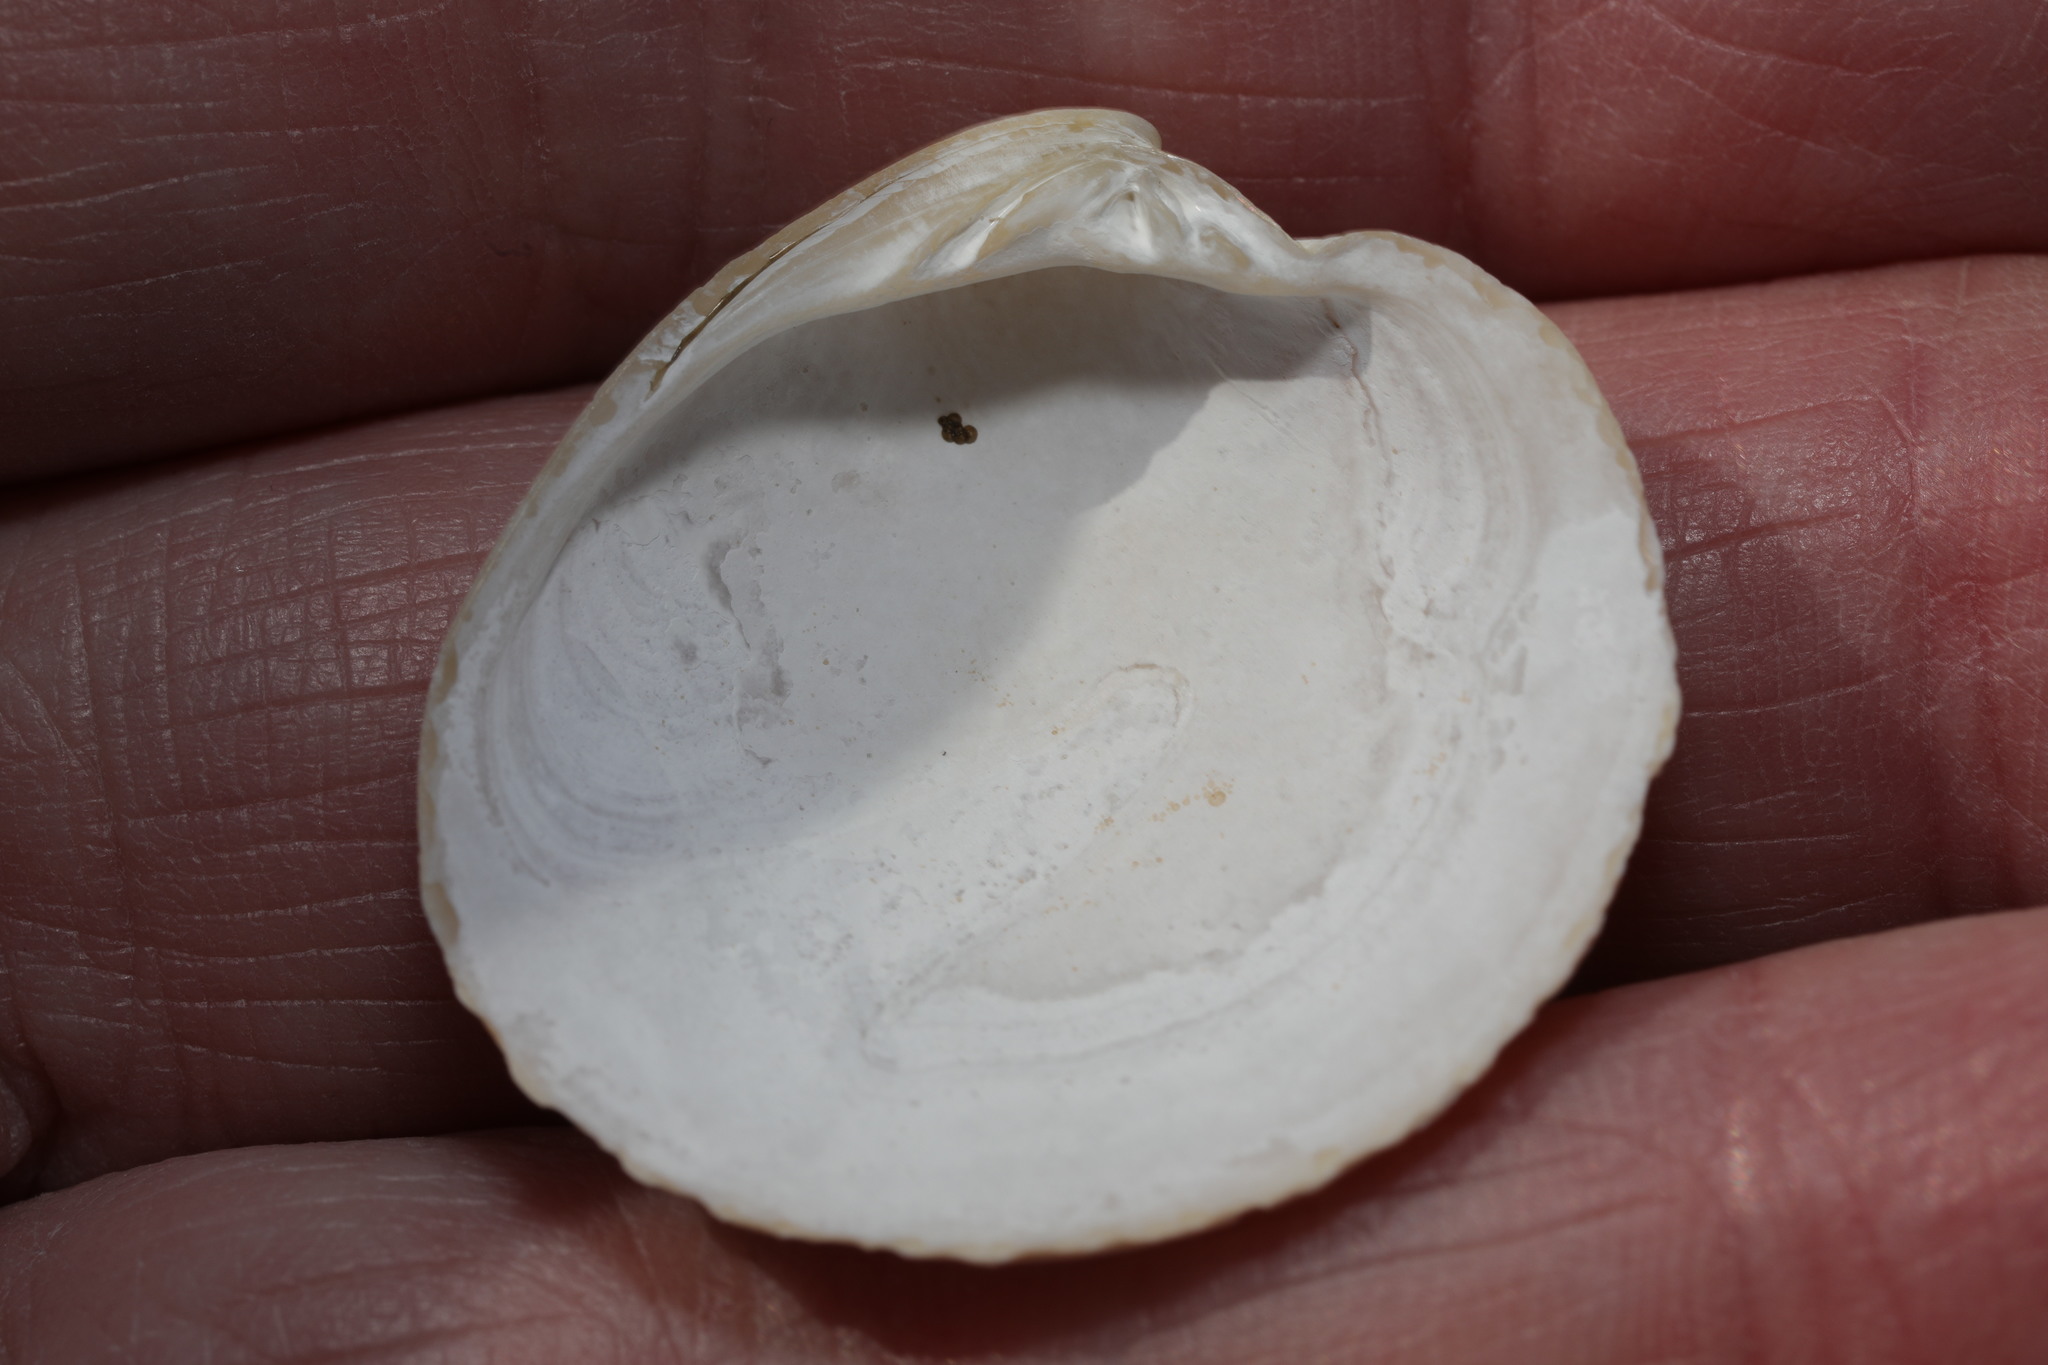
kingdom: Animalia
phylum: Mollusca
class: Bivalvia
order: Venerida
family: Veneridae
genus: Dosinia
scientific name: Dosinia exoleta
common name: Rayed artemis
